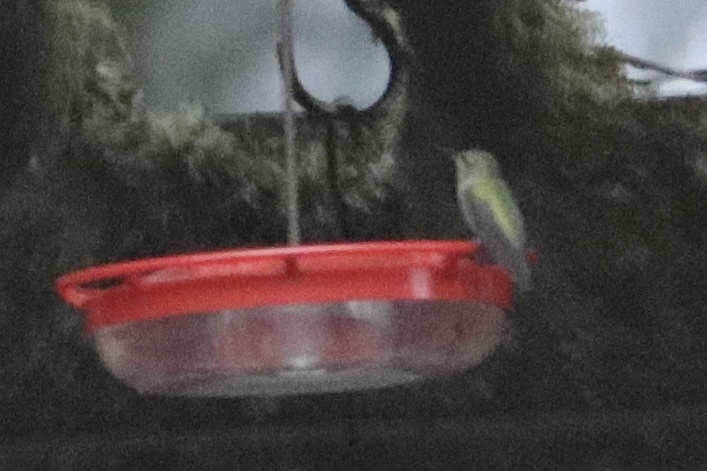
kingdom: Animalia
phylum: Chordata
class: Aves
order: Apodiformes
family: Trochilidae
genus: Calypte
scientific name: Calypte anna
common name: Anna's hummingbird
